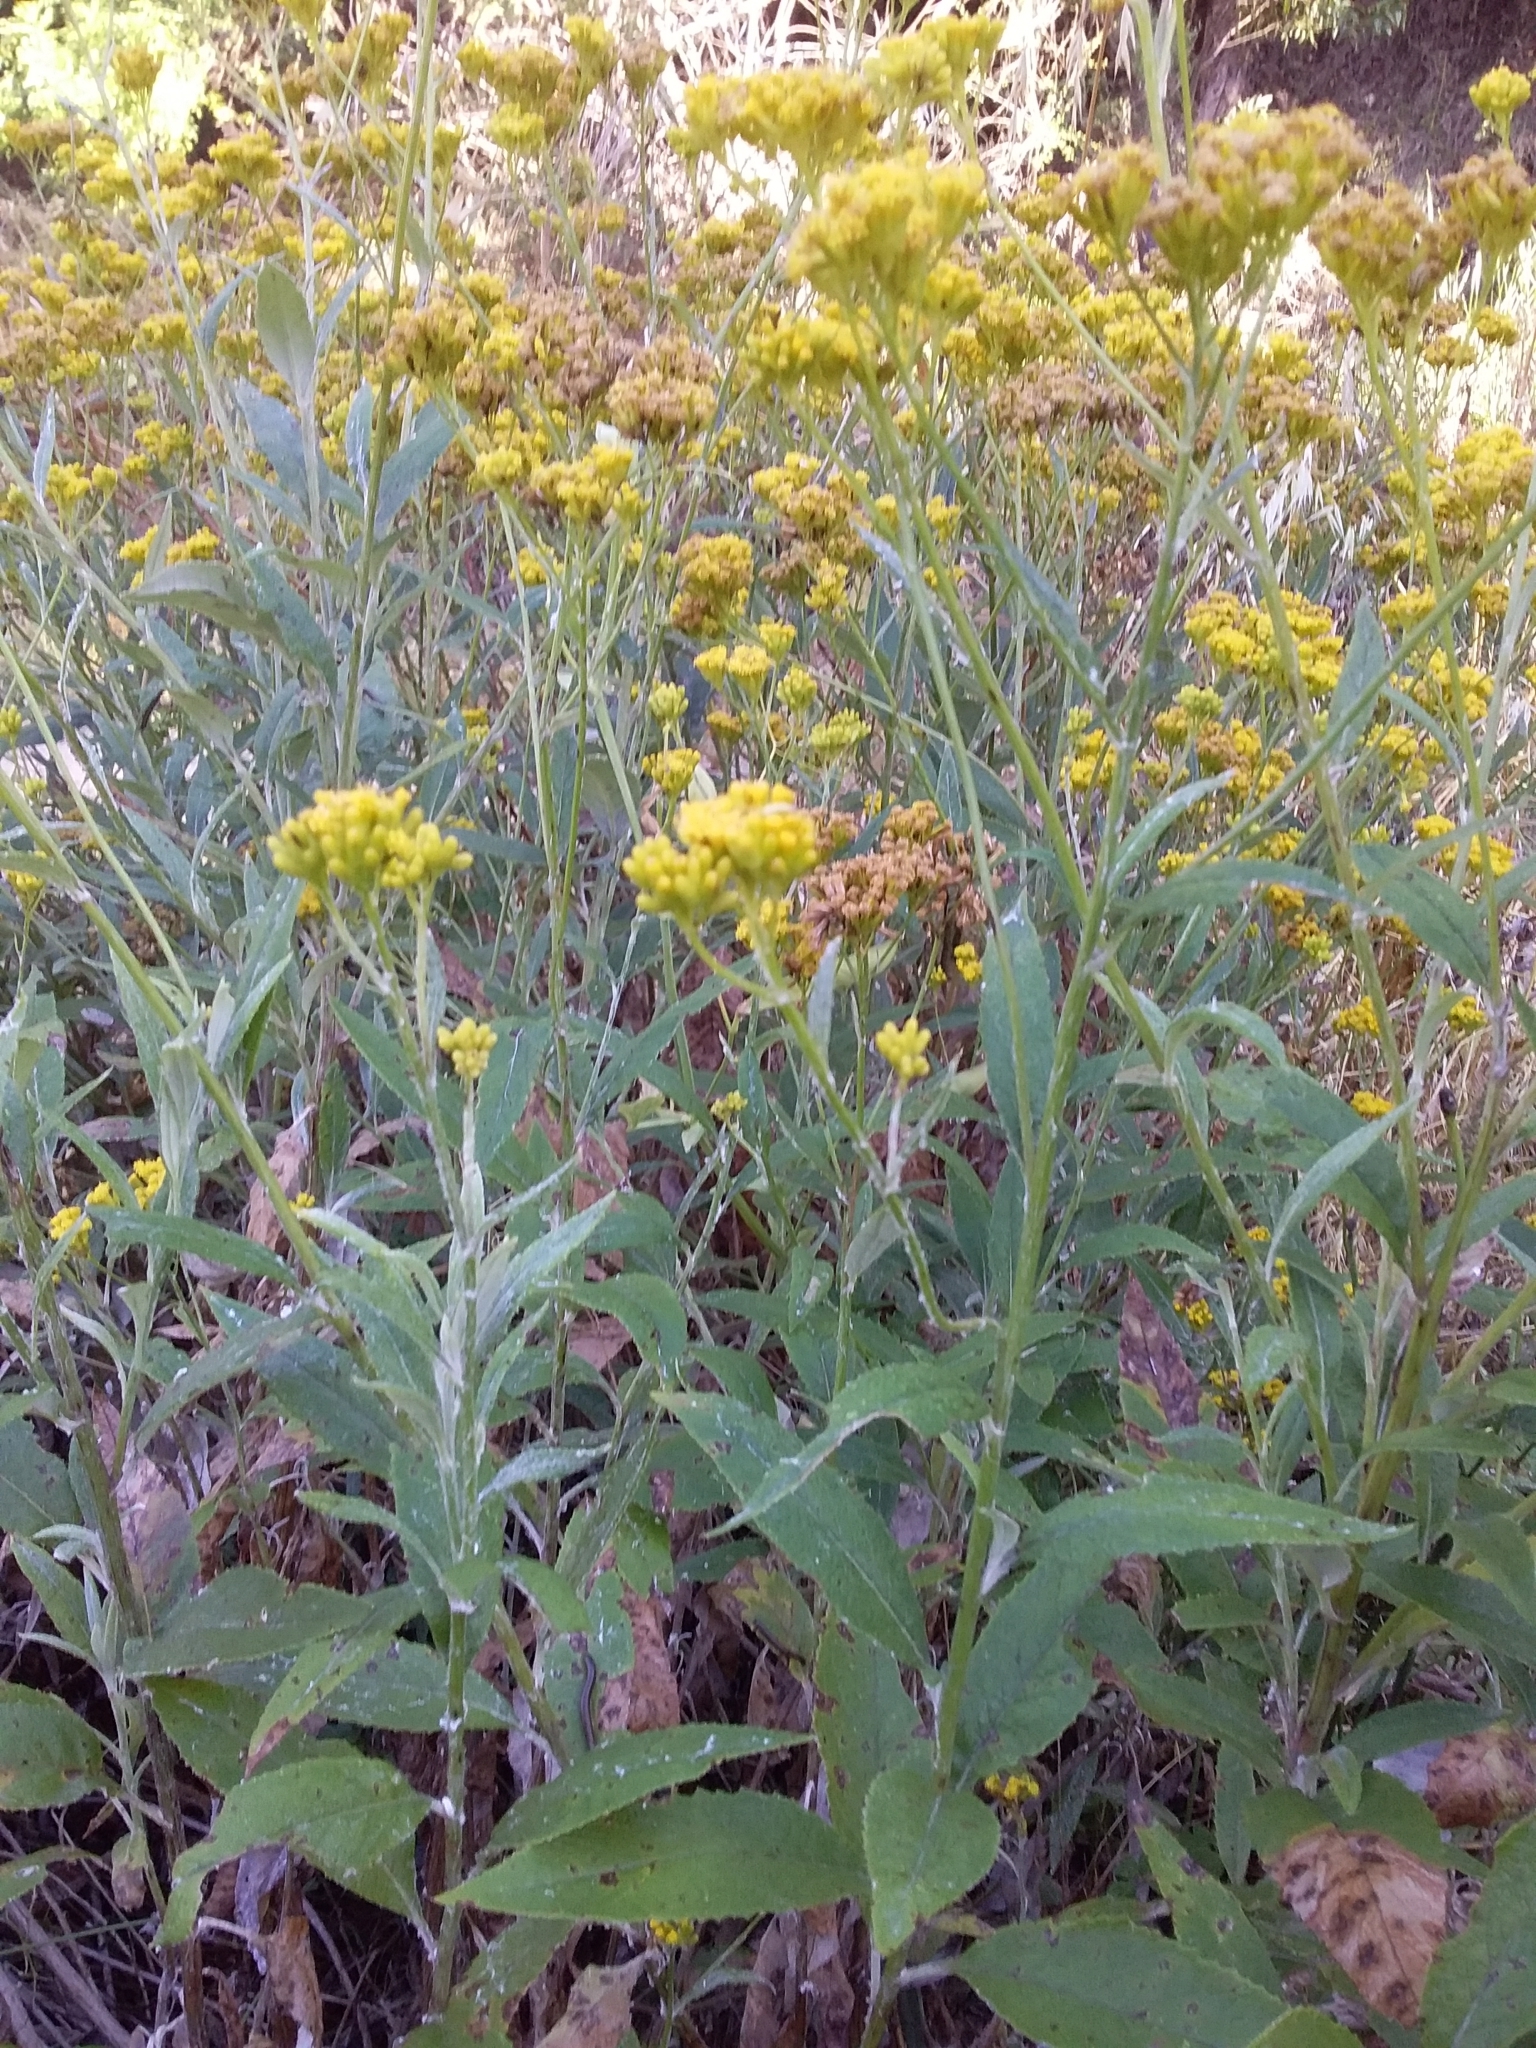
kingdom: Plantae
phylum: Tracheophyta
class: Magnoliopsida
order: Asterales
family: Asteraceae
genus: Senecio
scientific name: Senecio hypoleucus
